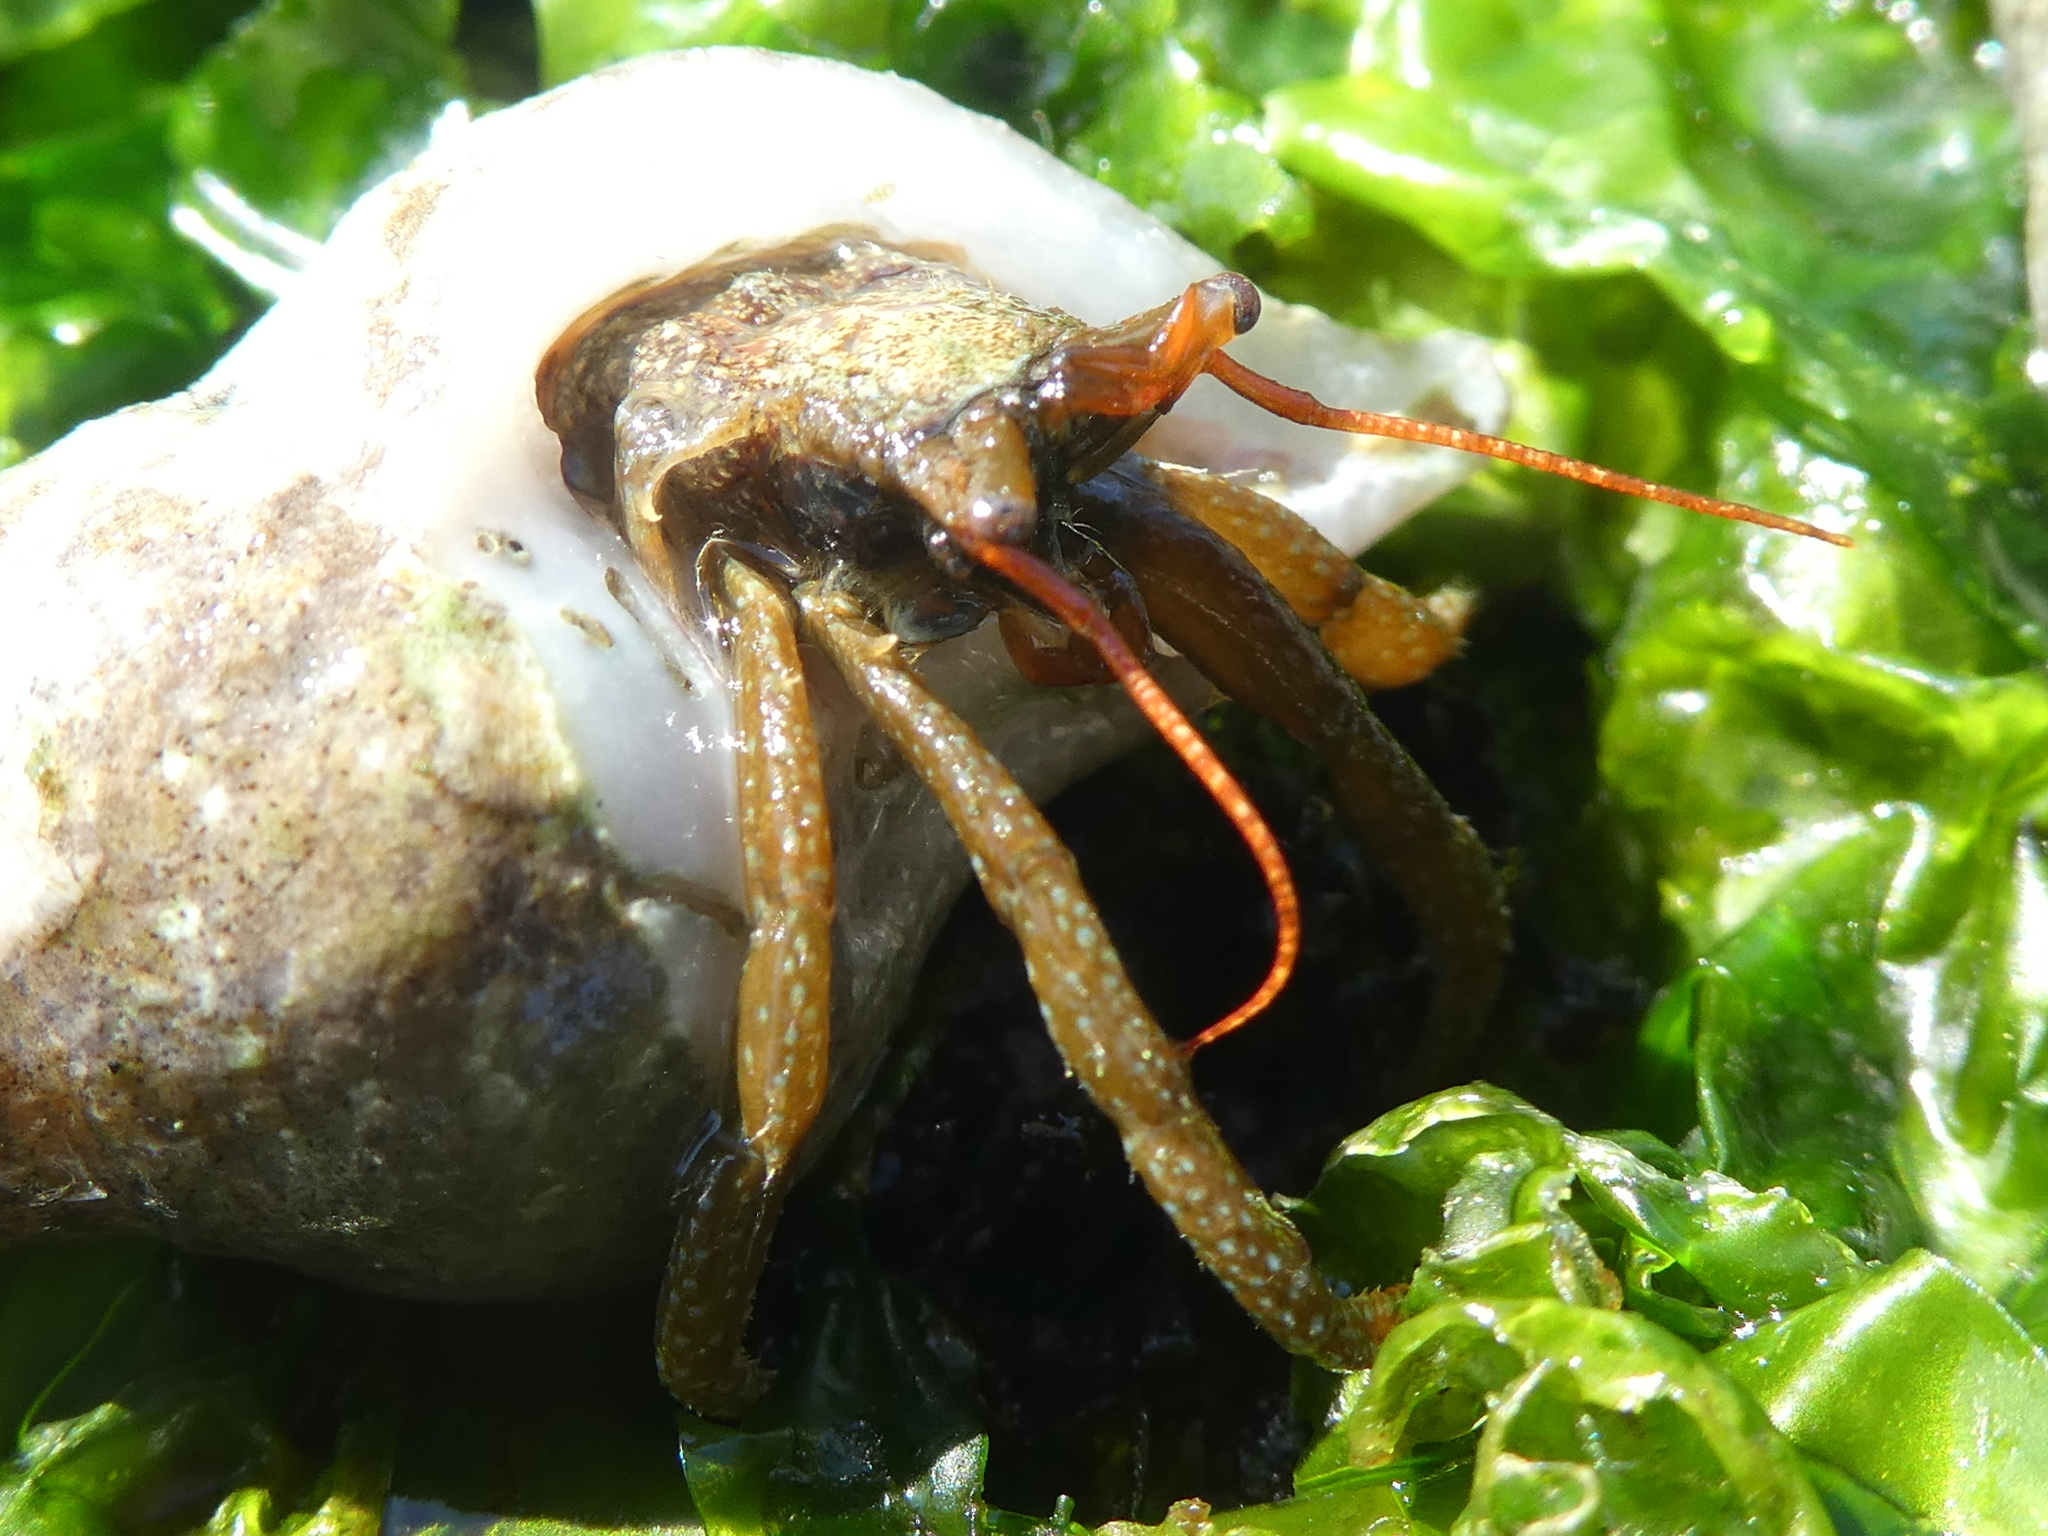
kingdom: Animalia
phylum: Arthropoda
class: Malacostraca
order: Decapoda
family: Paguridae
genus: Pagurus
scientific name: Pagurus granosimanus
